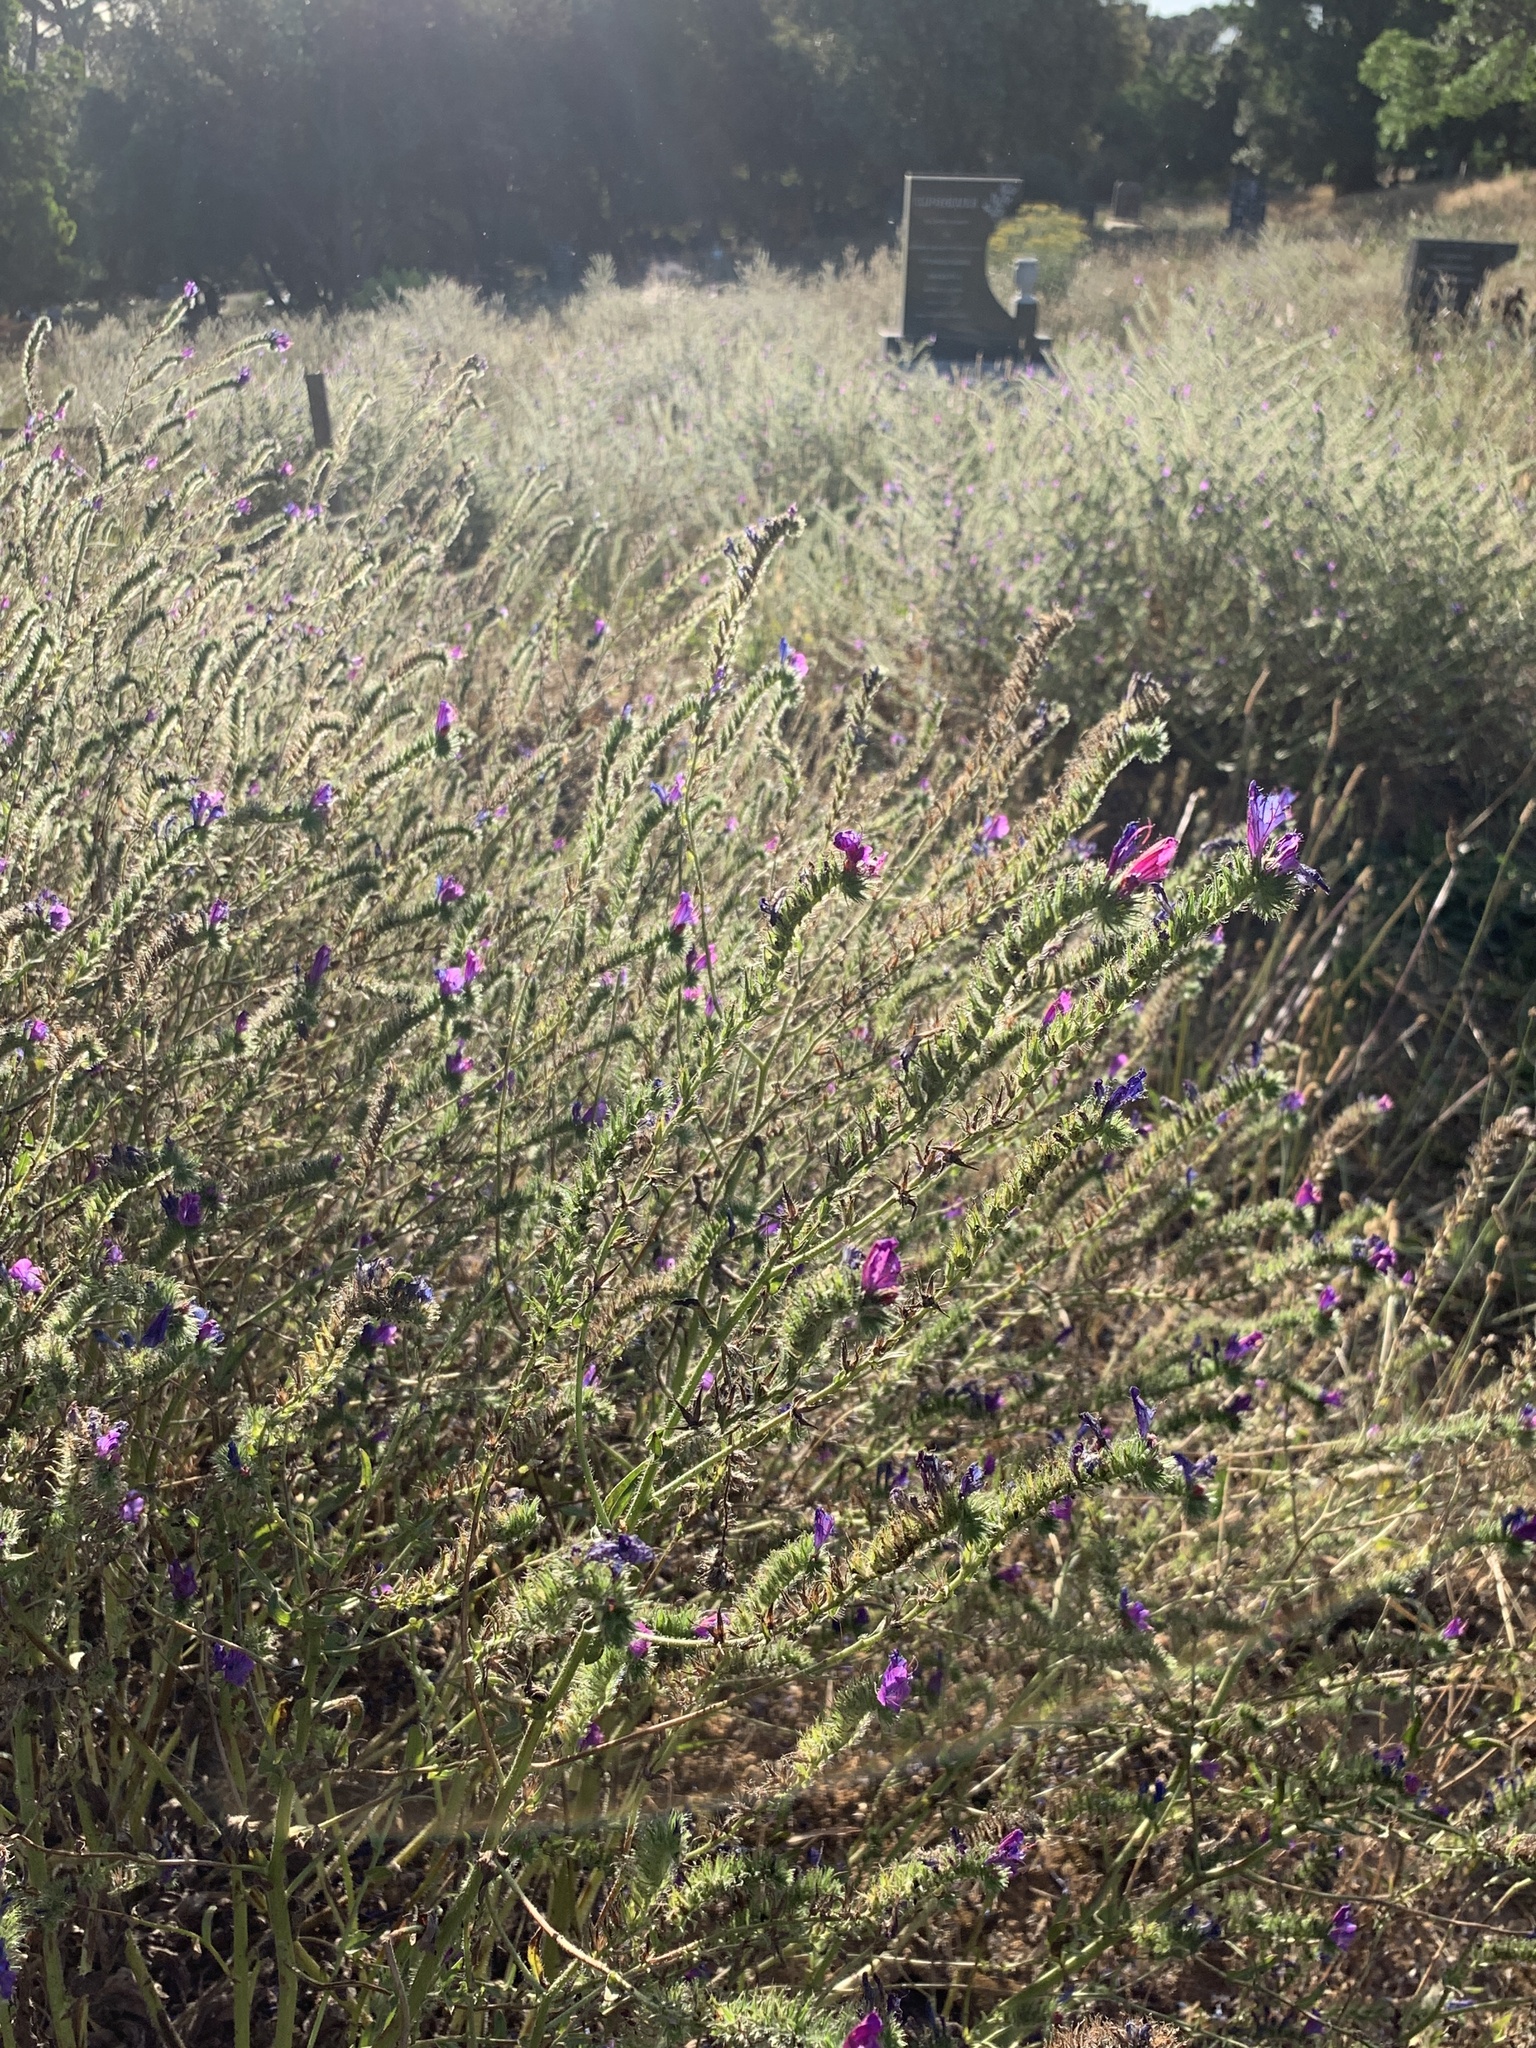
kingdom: Plantae
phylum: Tracheophyta
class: Magnoliopsida
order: Boraginales
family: Boraginaceae
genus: Echium
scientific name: Echium plantagineum
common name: Purple viper's-bugloss
